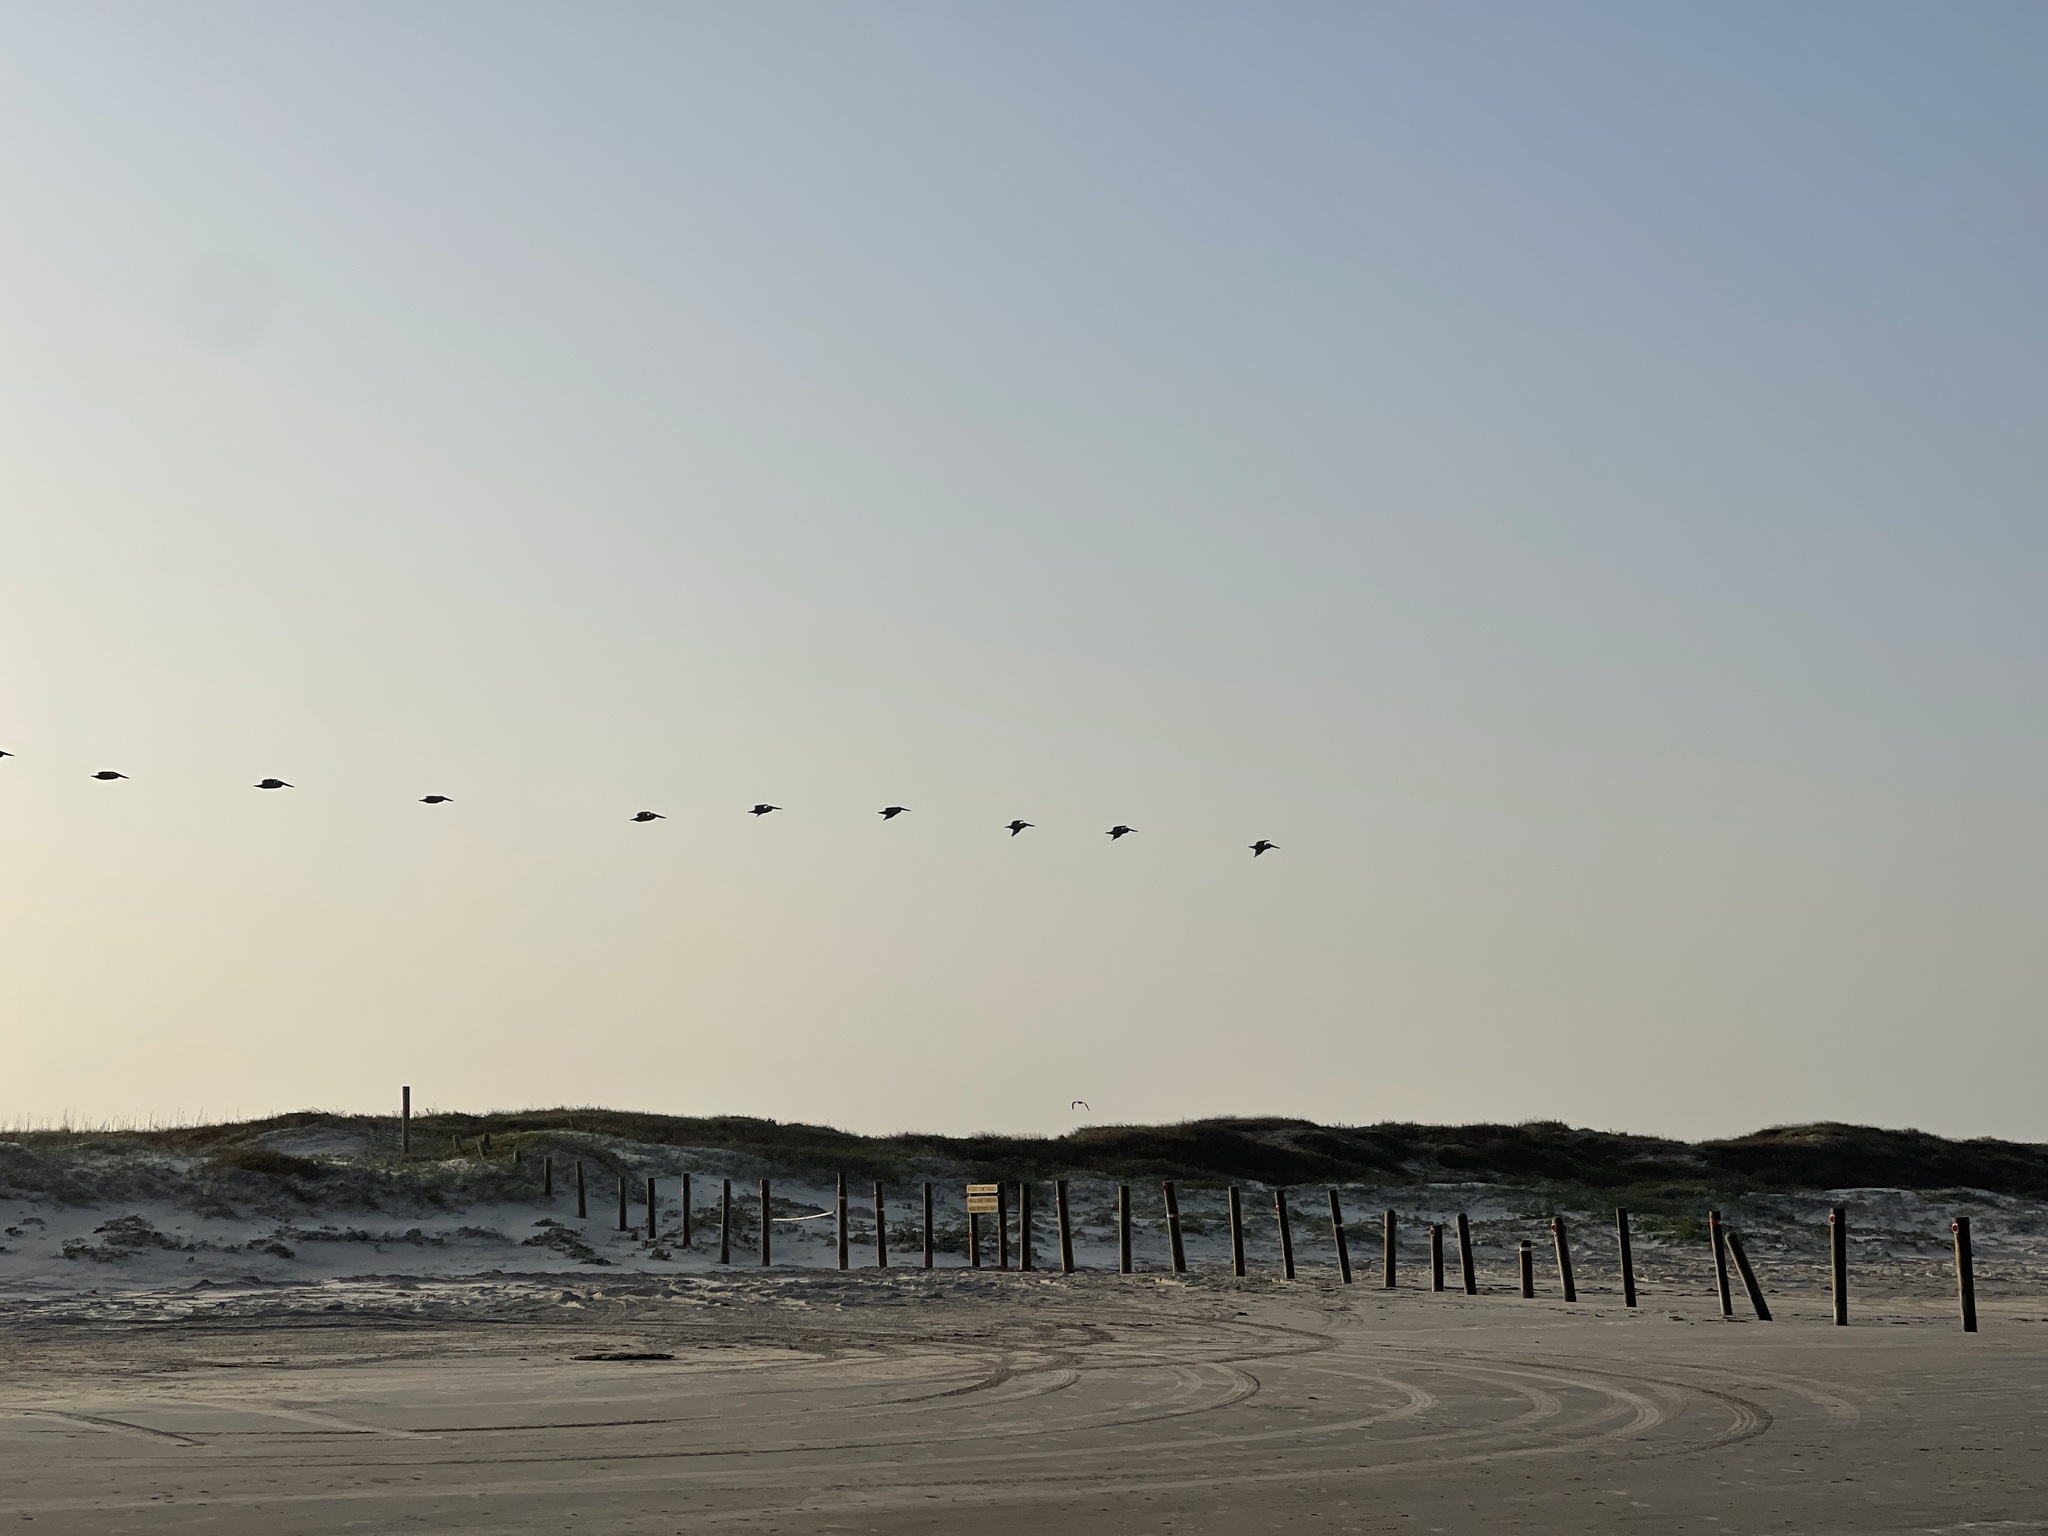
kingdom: Animalia
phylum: Chordata
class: Aves
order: Pelecaniformes
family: Pelecanidae
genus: Pelecanus
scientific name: Pelecanus occidentalis
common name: Brown pelican
